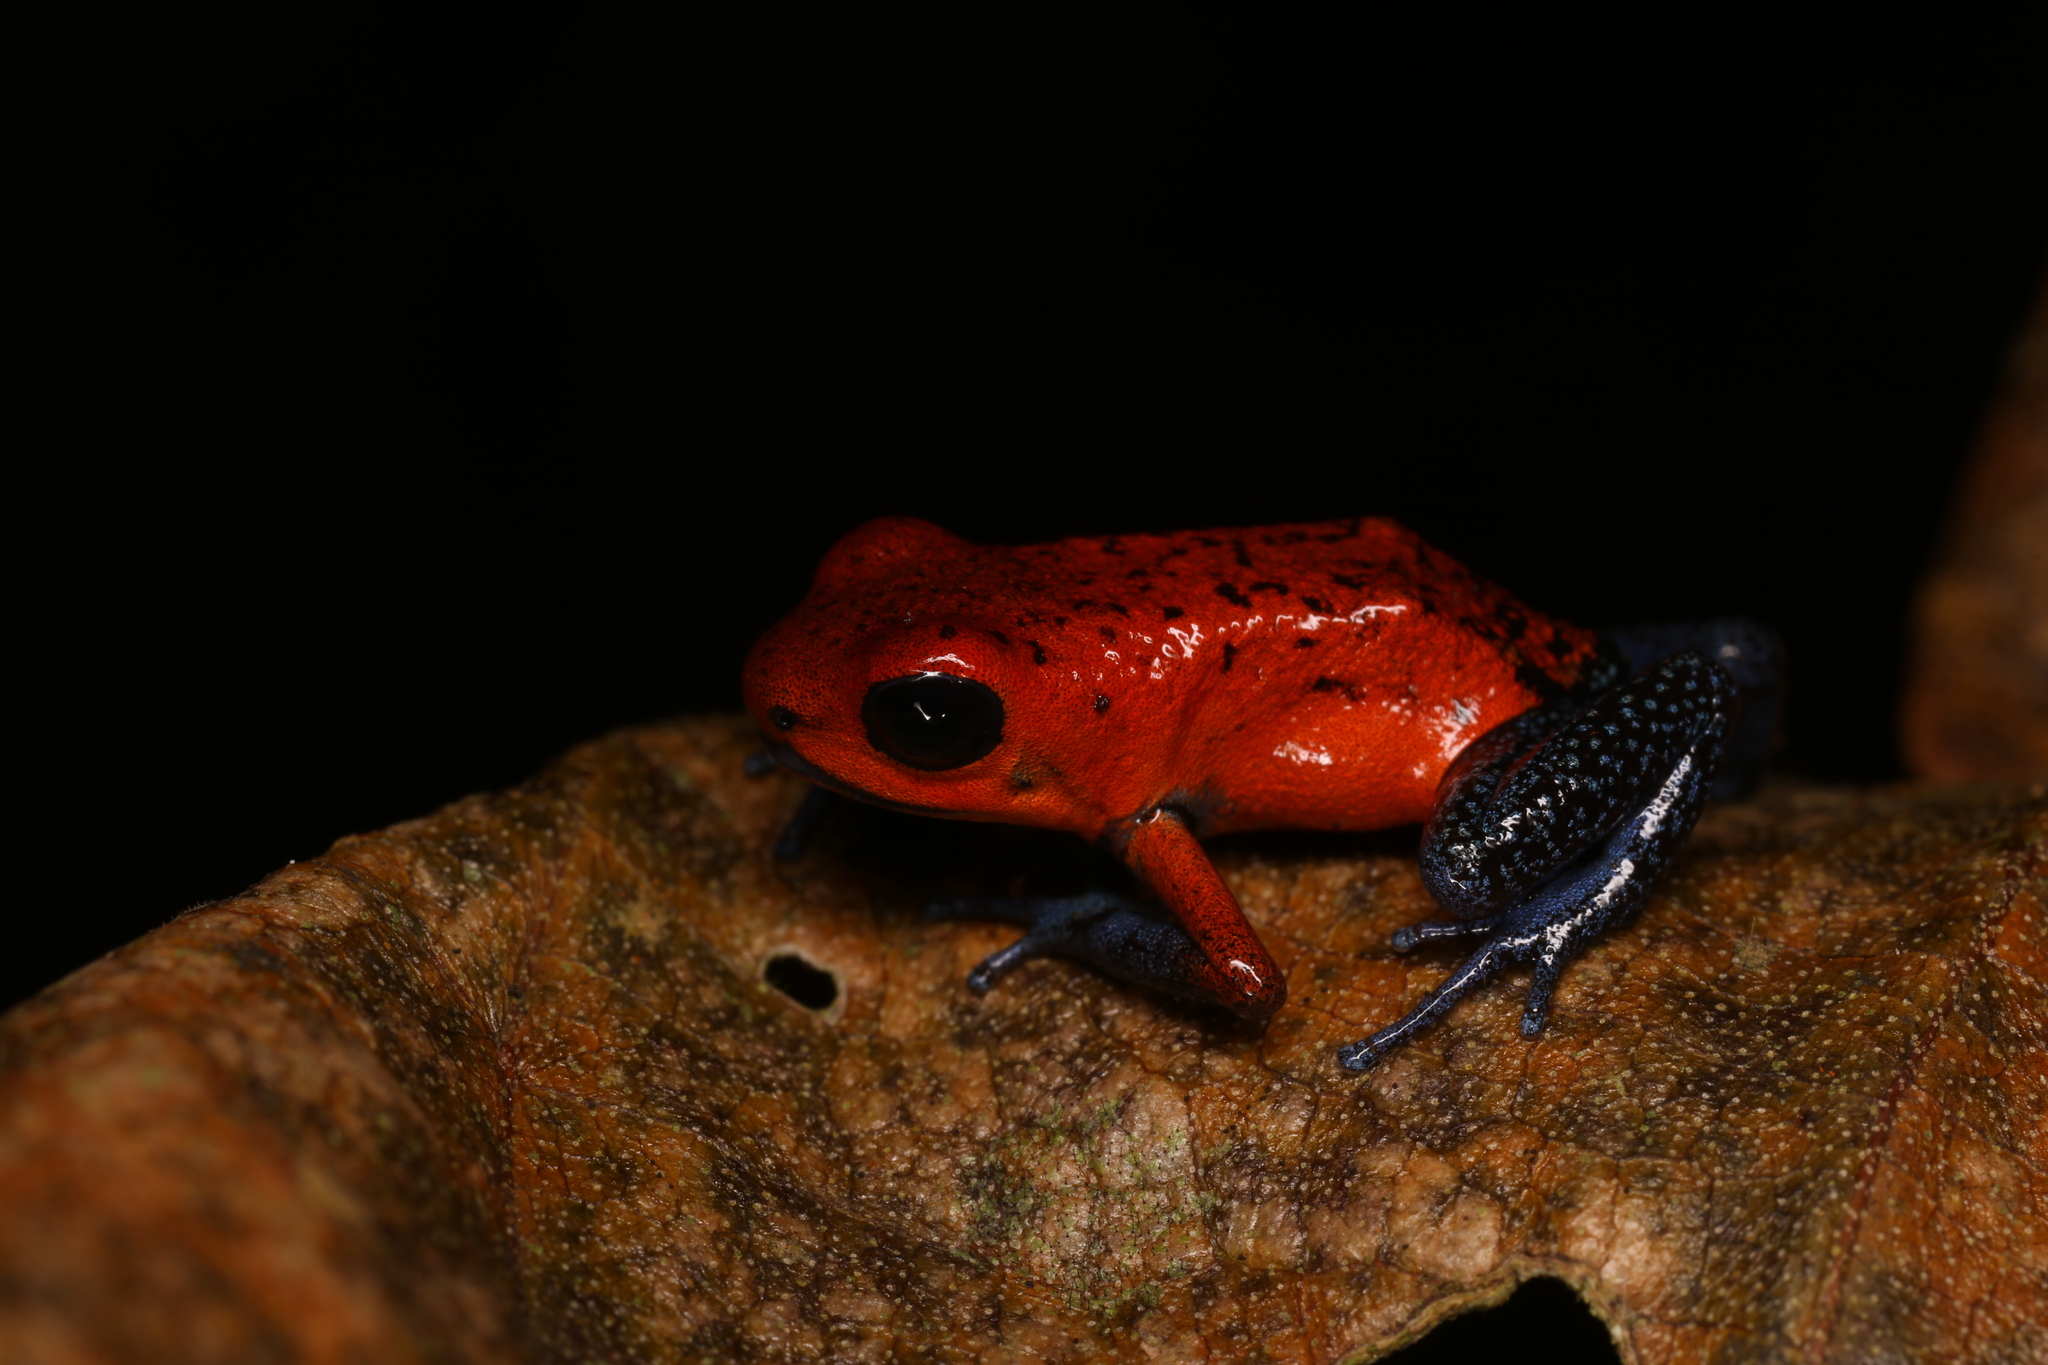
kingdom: Animalia
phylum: Chordata
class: Amphibia
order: Anura
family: Dendrobatidae
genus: Oophaga
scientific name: Oophaga pumilio
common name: Flaming poison frog
